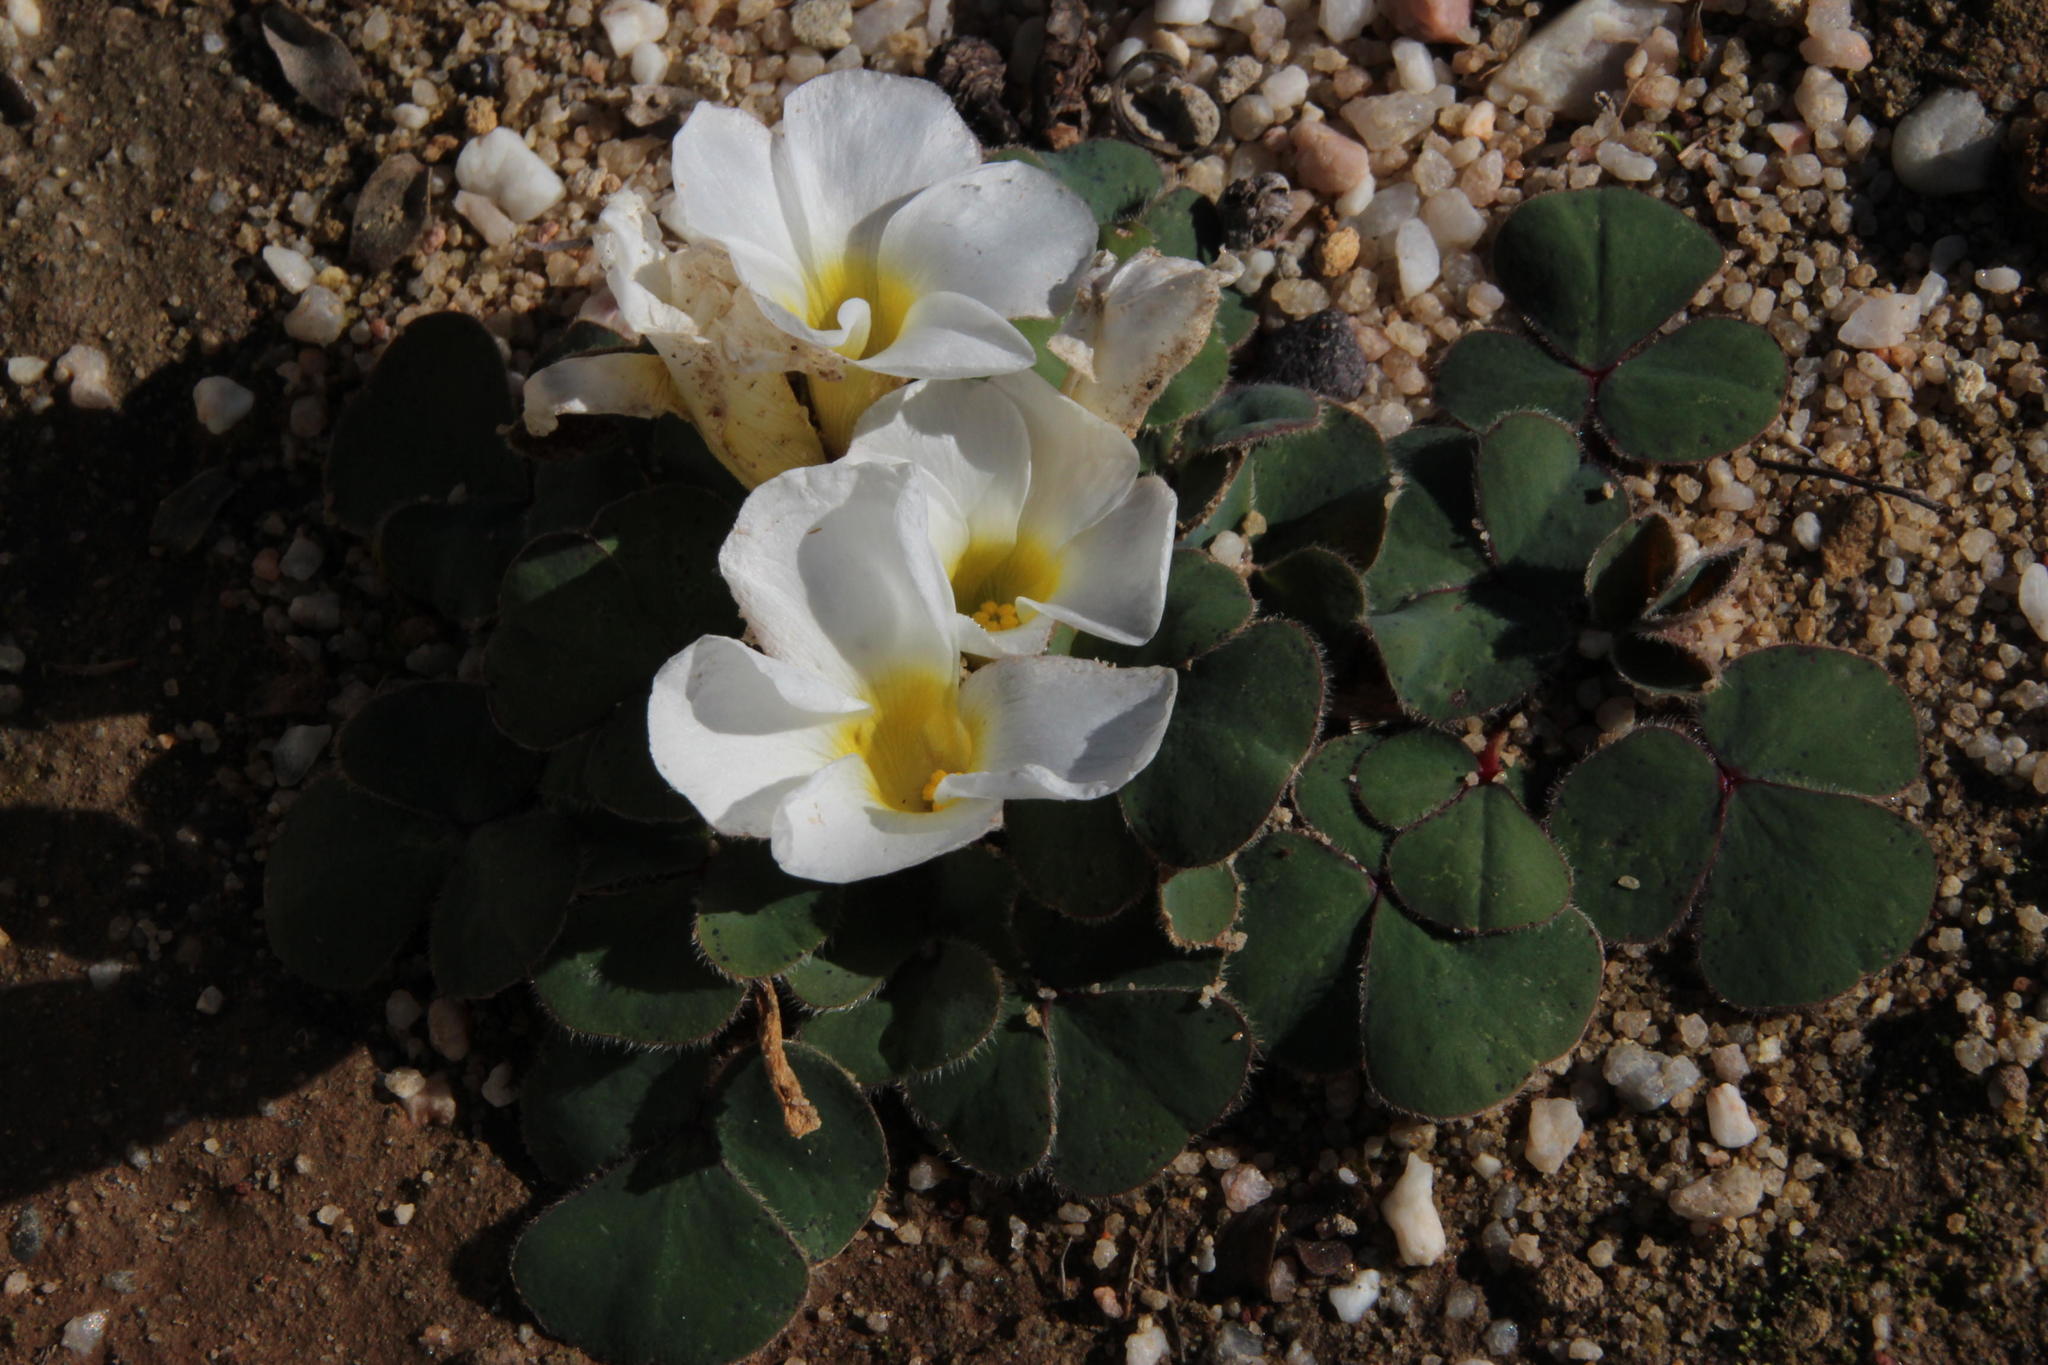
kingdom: Plantae
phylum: Tracheophyta
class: Magnoliopsida
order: Oxalidales
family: Oxalidaceae
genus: Oxalis
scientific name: Oxalis purpurea
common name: Purple woodsorrel
